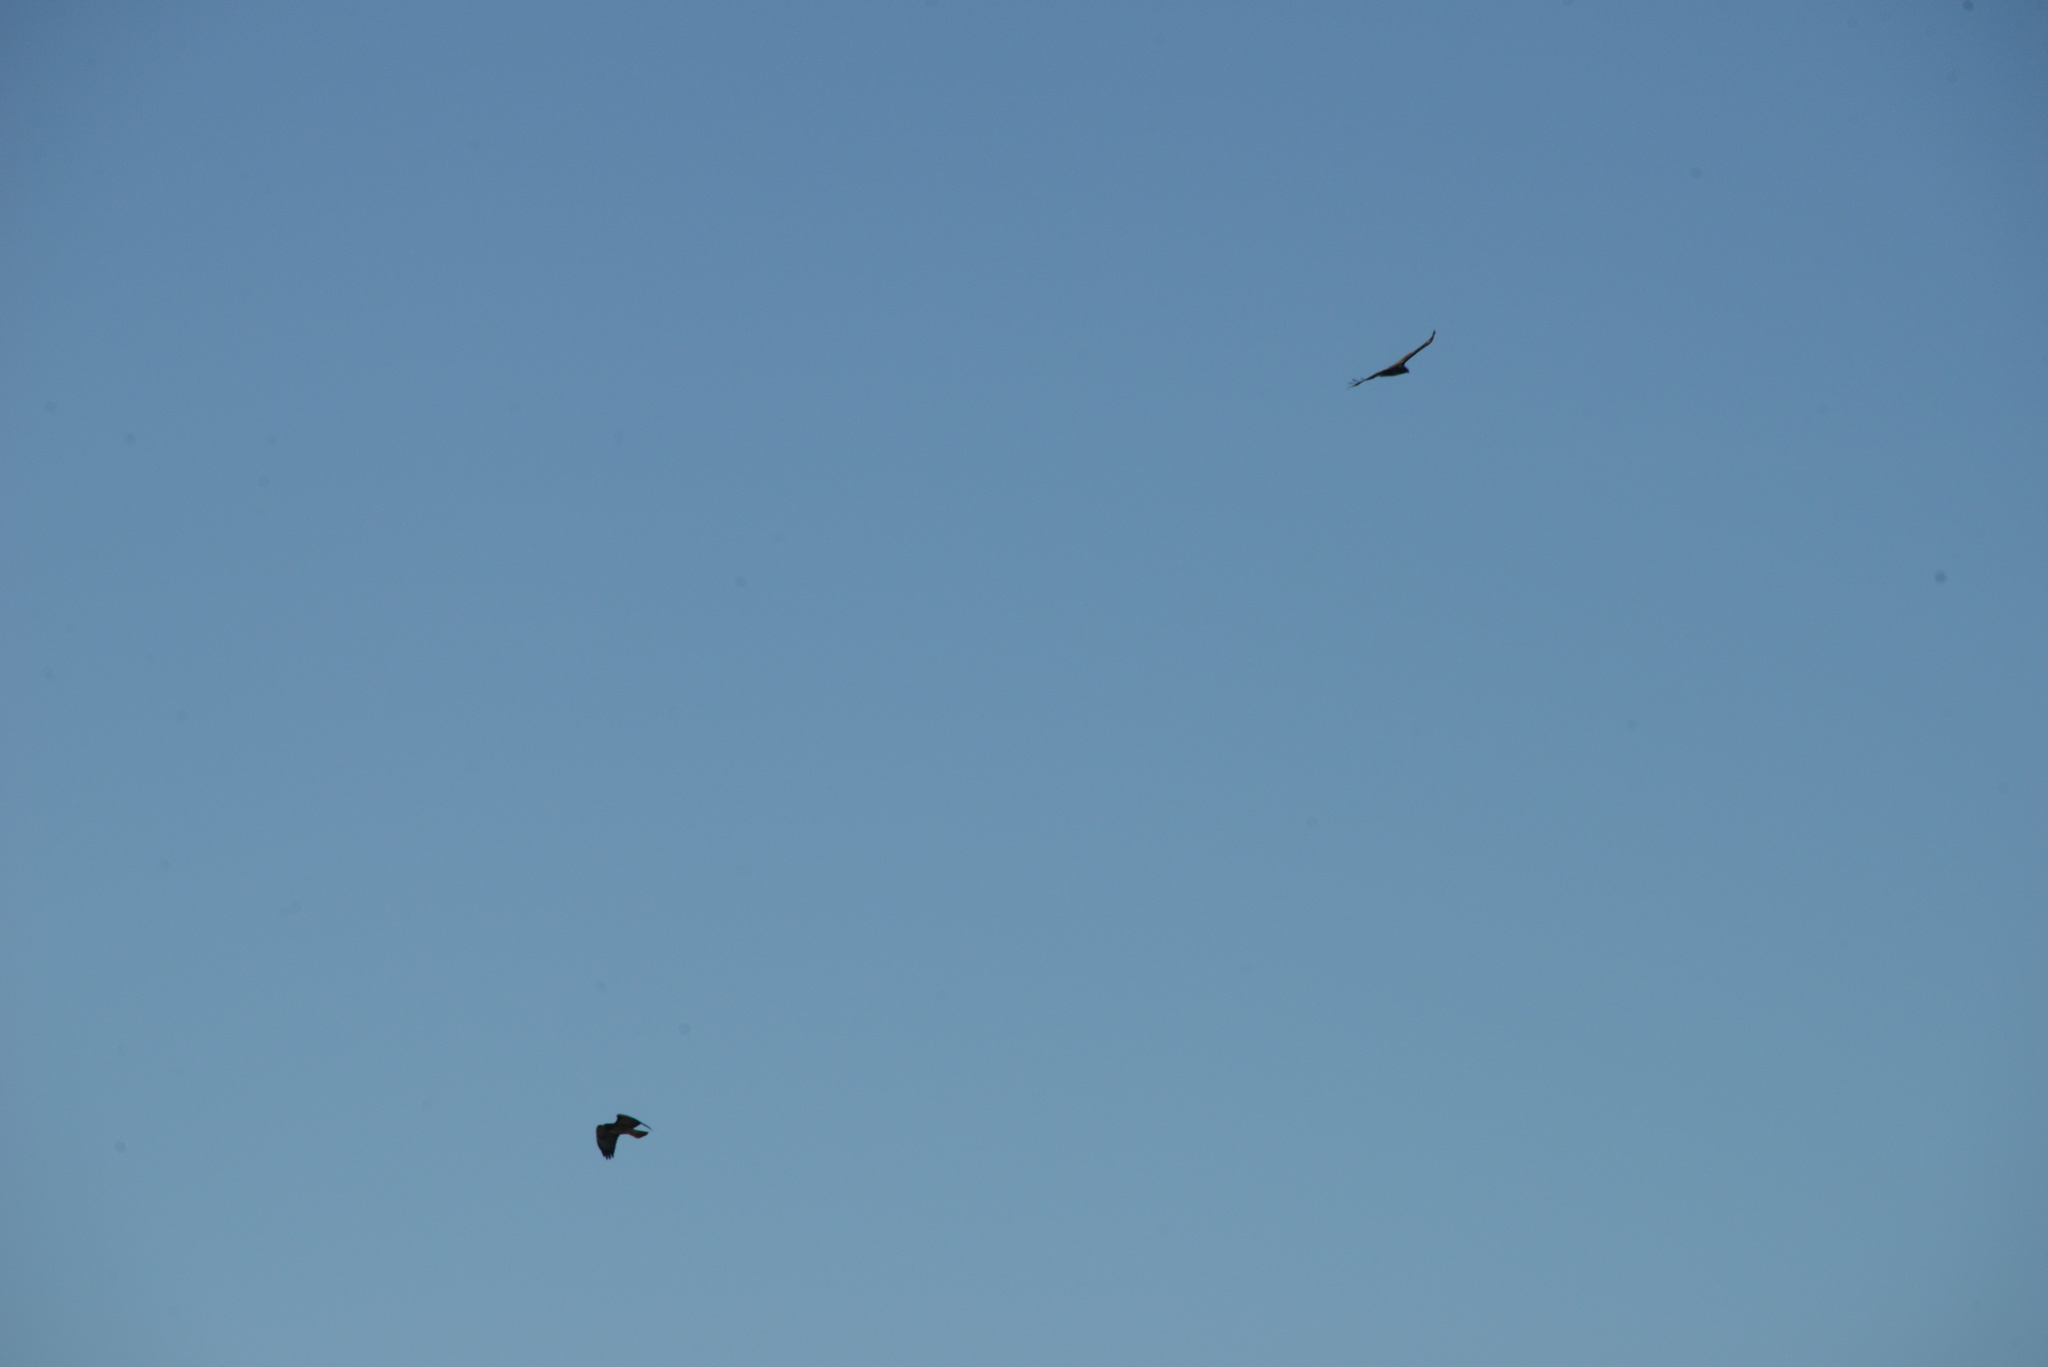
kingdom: Animalia
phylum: Chordata
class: Aves
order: Accipitriformes
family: Accipitridae
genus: Buteo
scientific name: Buteo jamaicensis
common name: Red-tailed hawk
